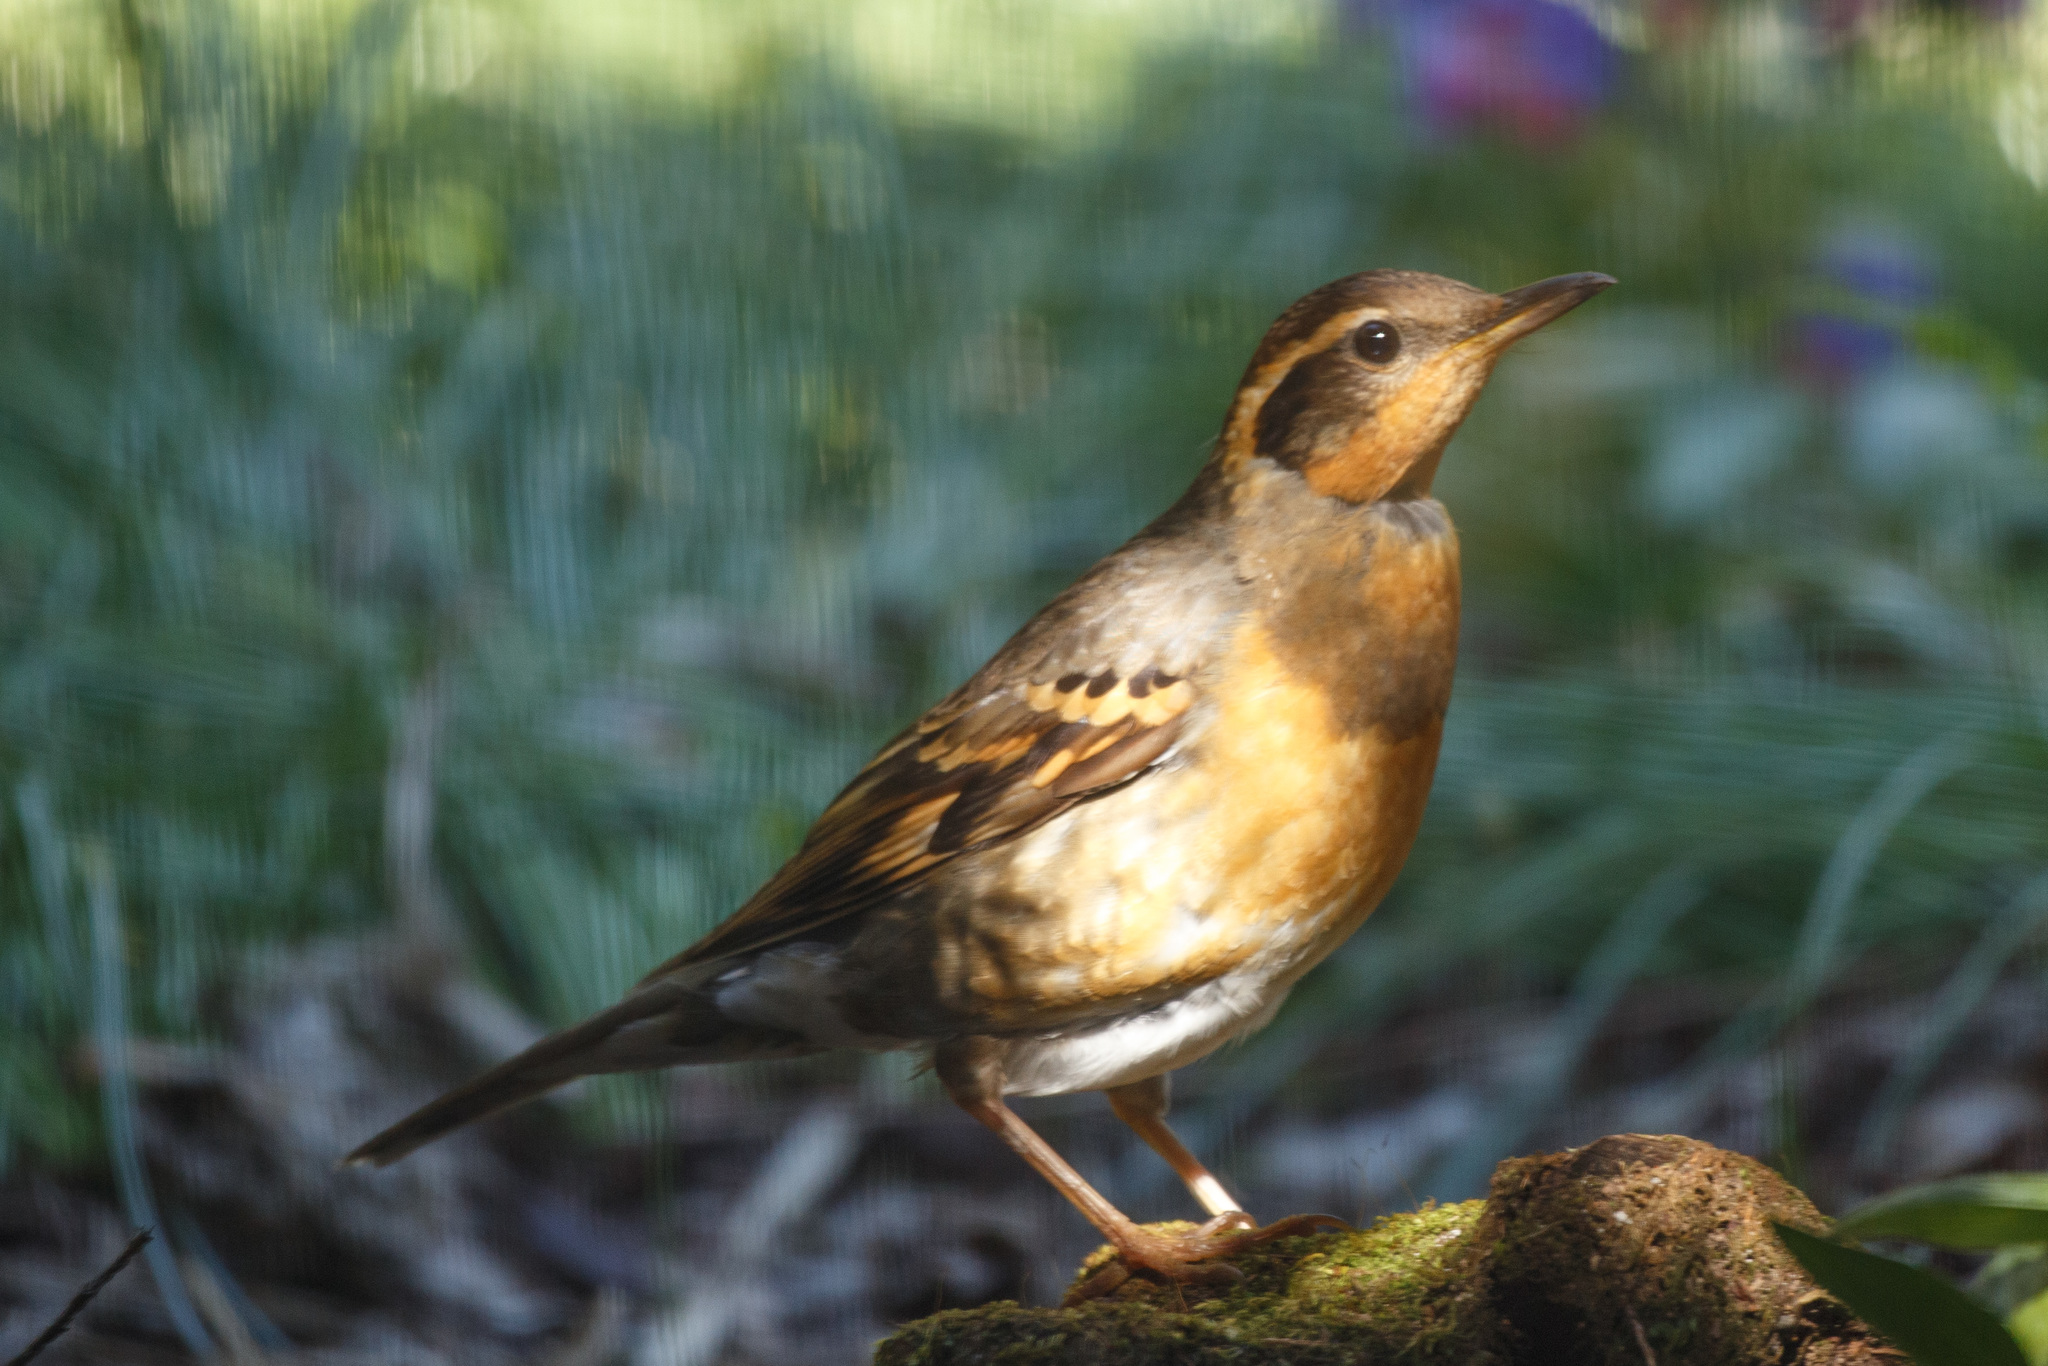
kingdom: Animalia
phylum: Chordata
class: Aves
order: Passeriformes
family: Turdidae
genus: Ixoreus
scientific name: Ixoreus naevius
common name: Varied thrush
